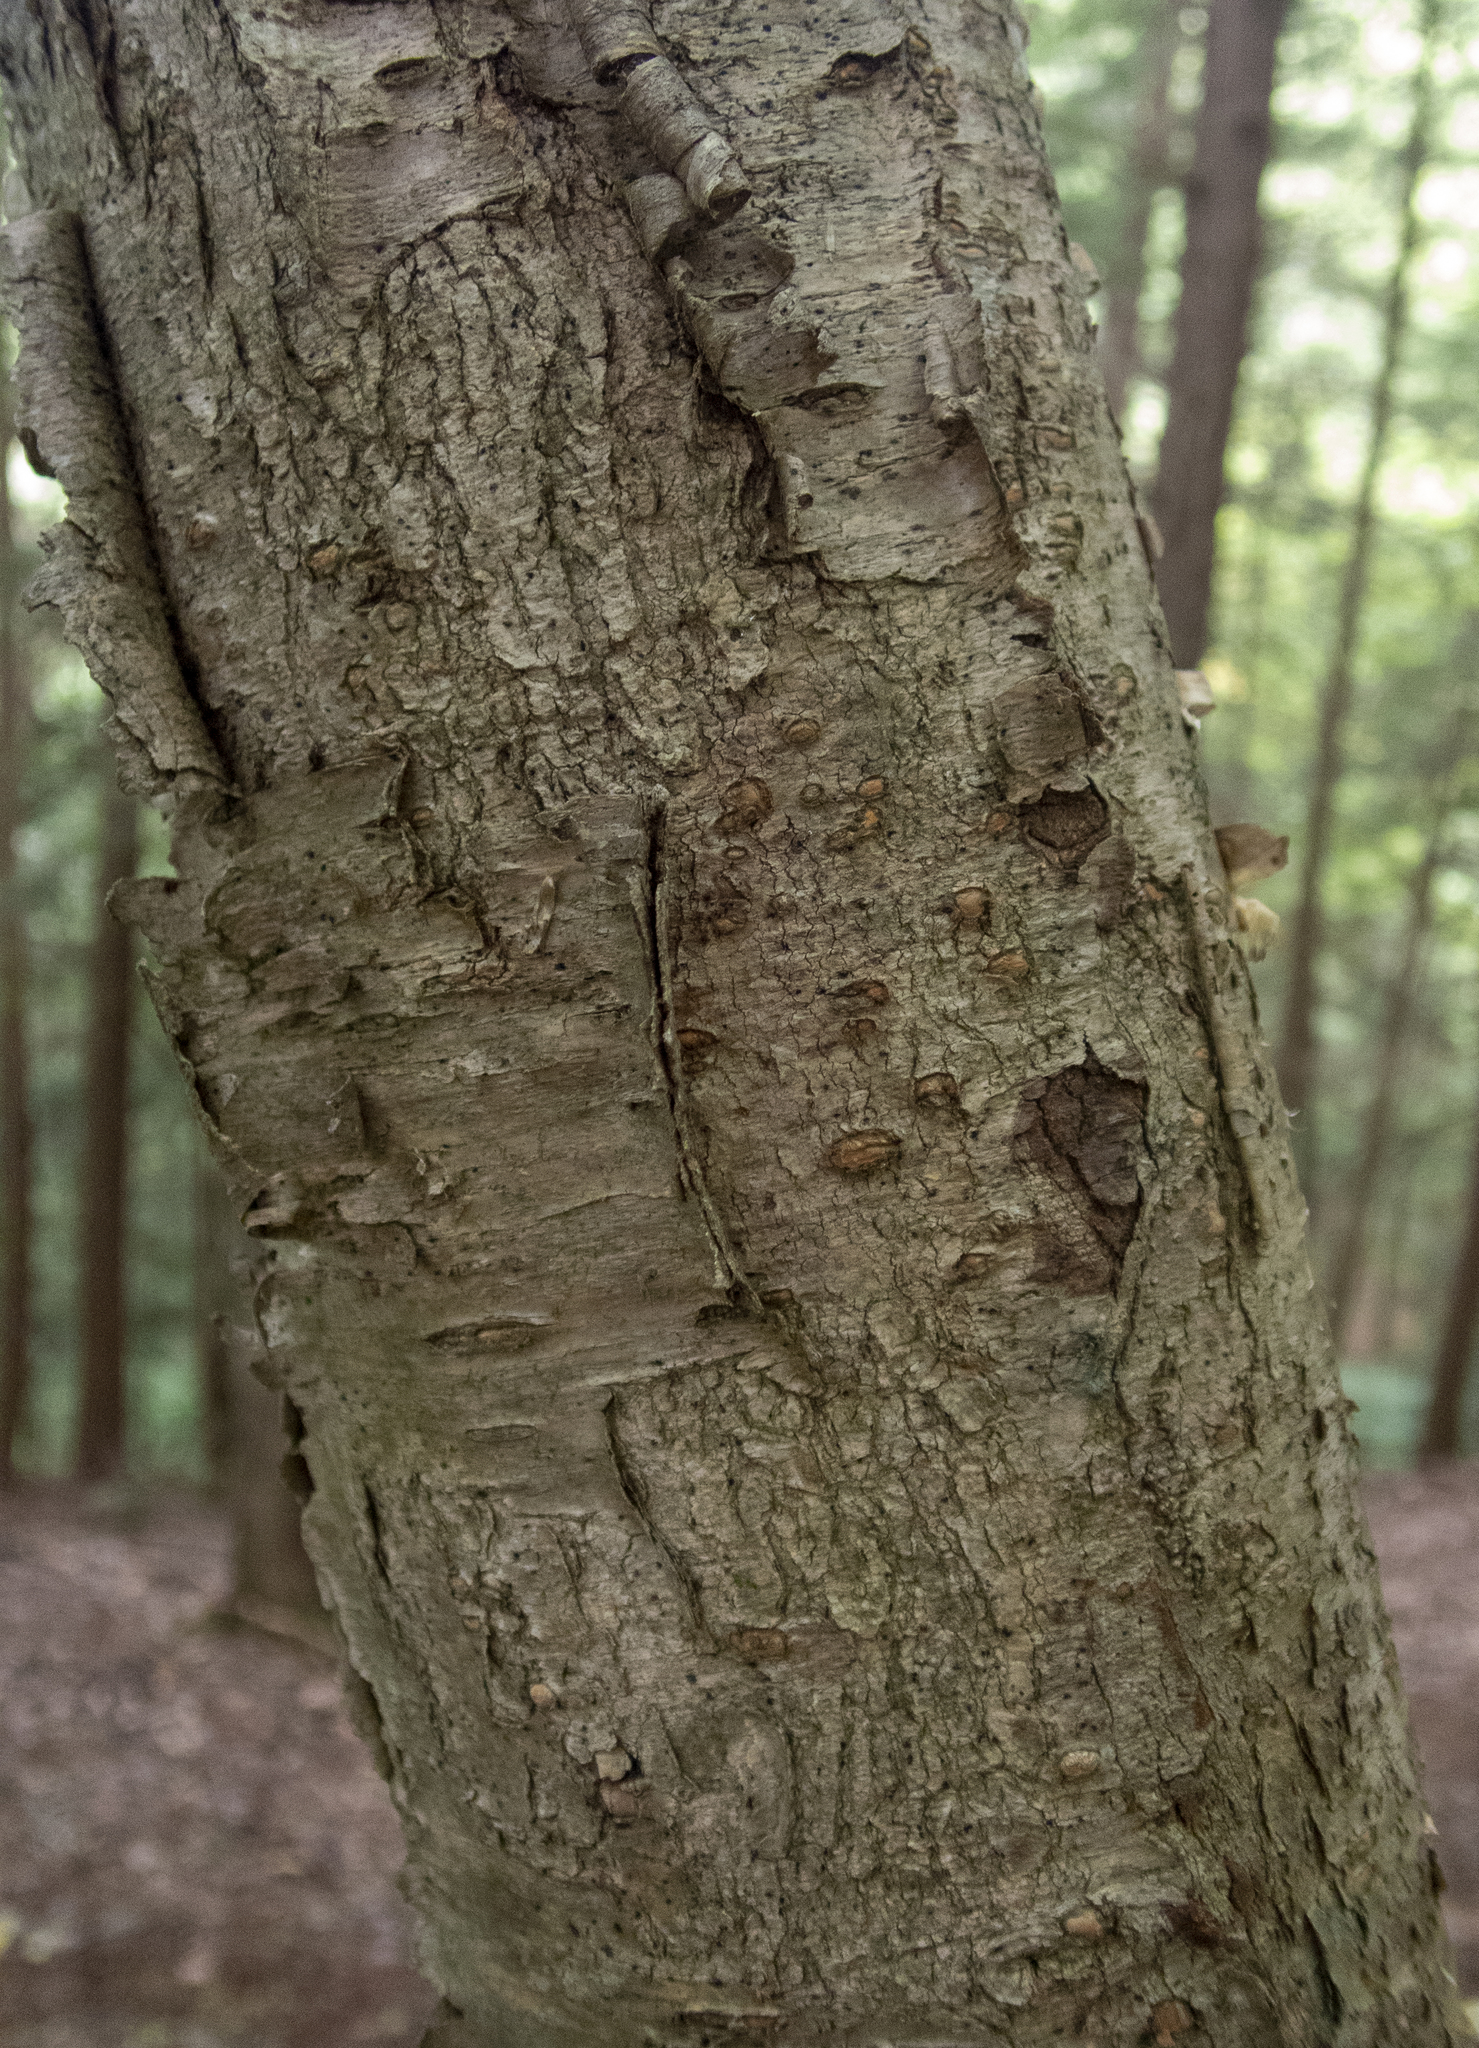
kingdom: Plantae
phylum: Tracheophyta
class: Magnoliopsida
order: Fagales
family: Betulaceae
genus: Betula
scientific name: Betula alleghaniensis
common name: Yellow birch
